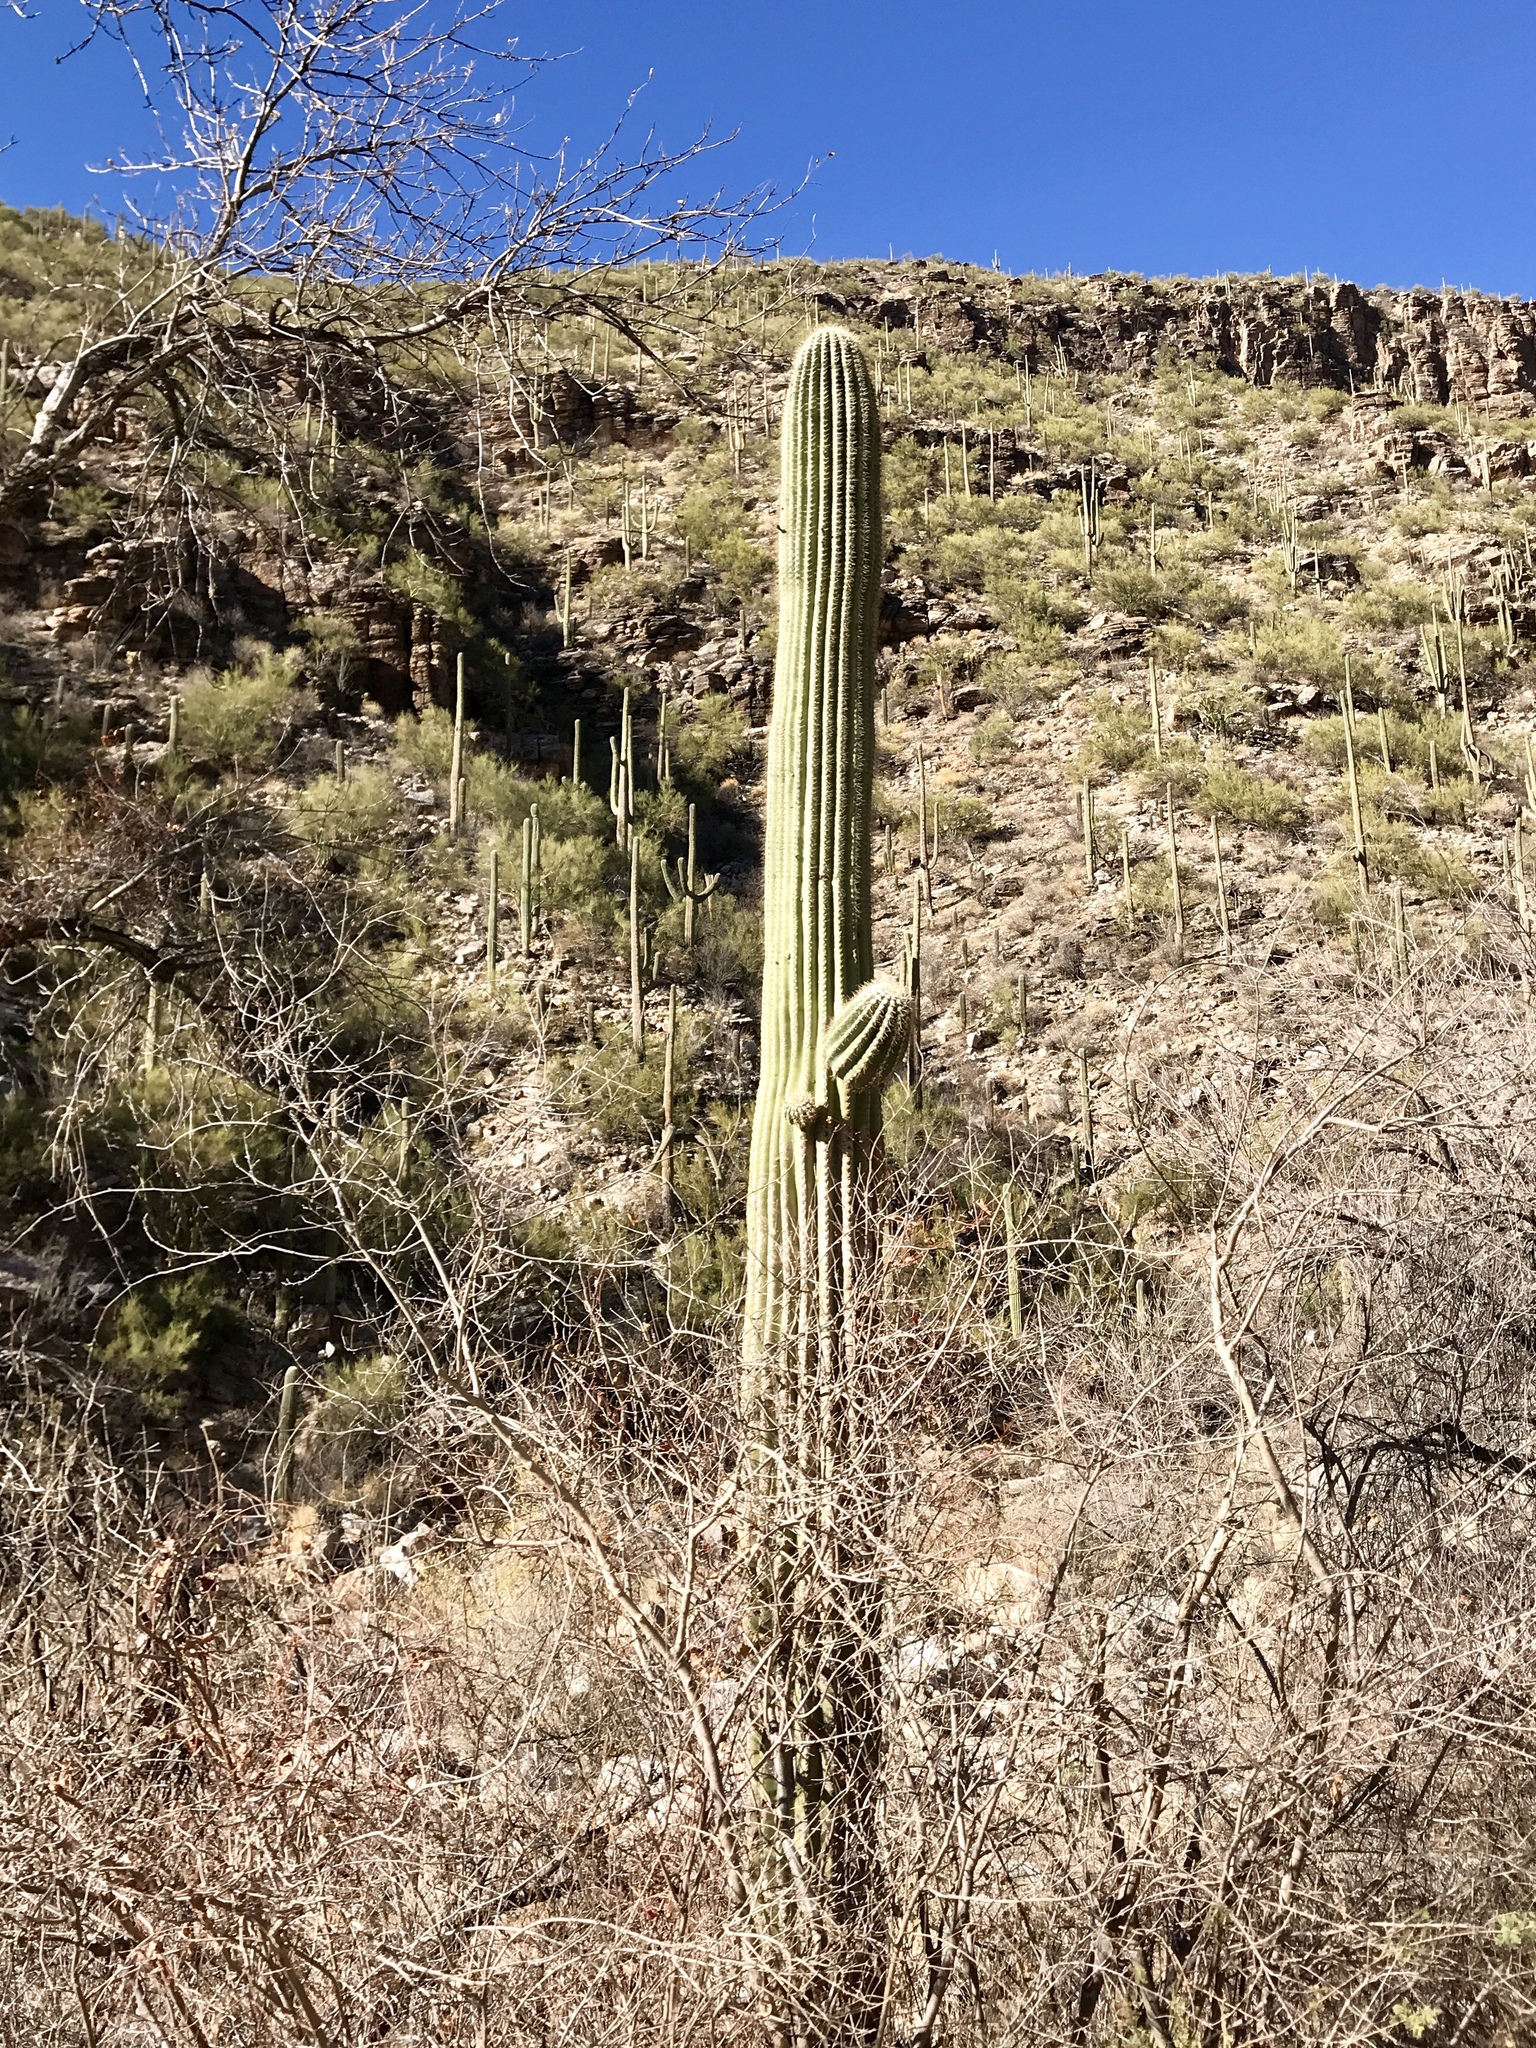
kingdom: Plantae
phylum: Tracheophyta
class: Magnoliopsida
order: Caryophyllales
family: Cactaceae
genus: Carnegiea
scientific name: Carnegiea gigantea
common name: Saguaro
